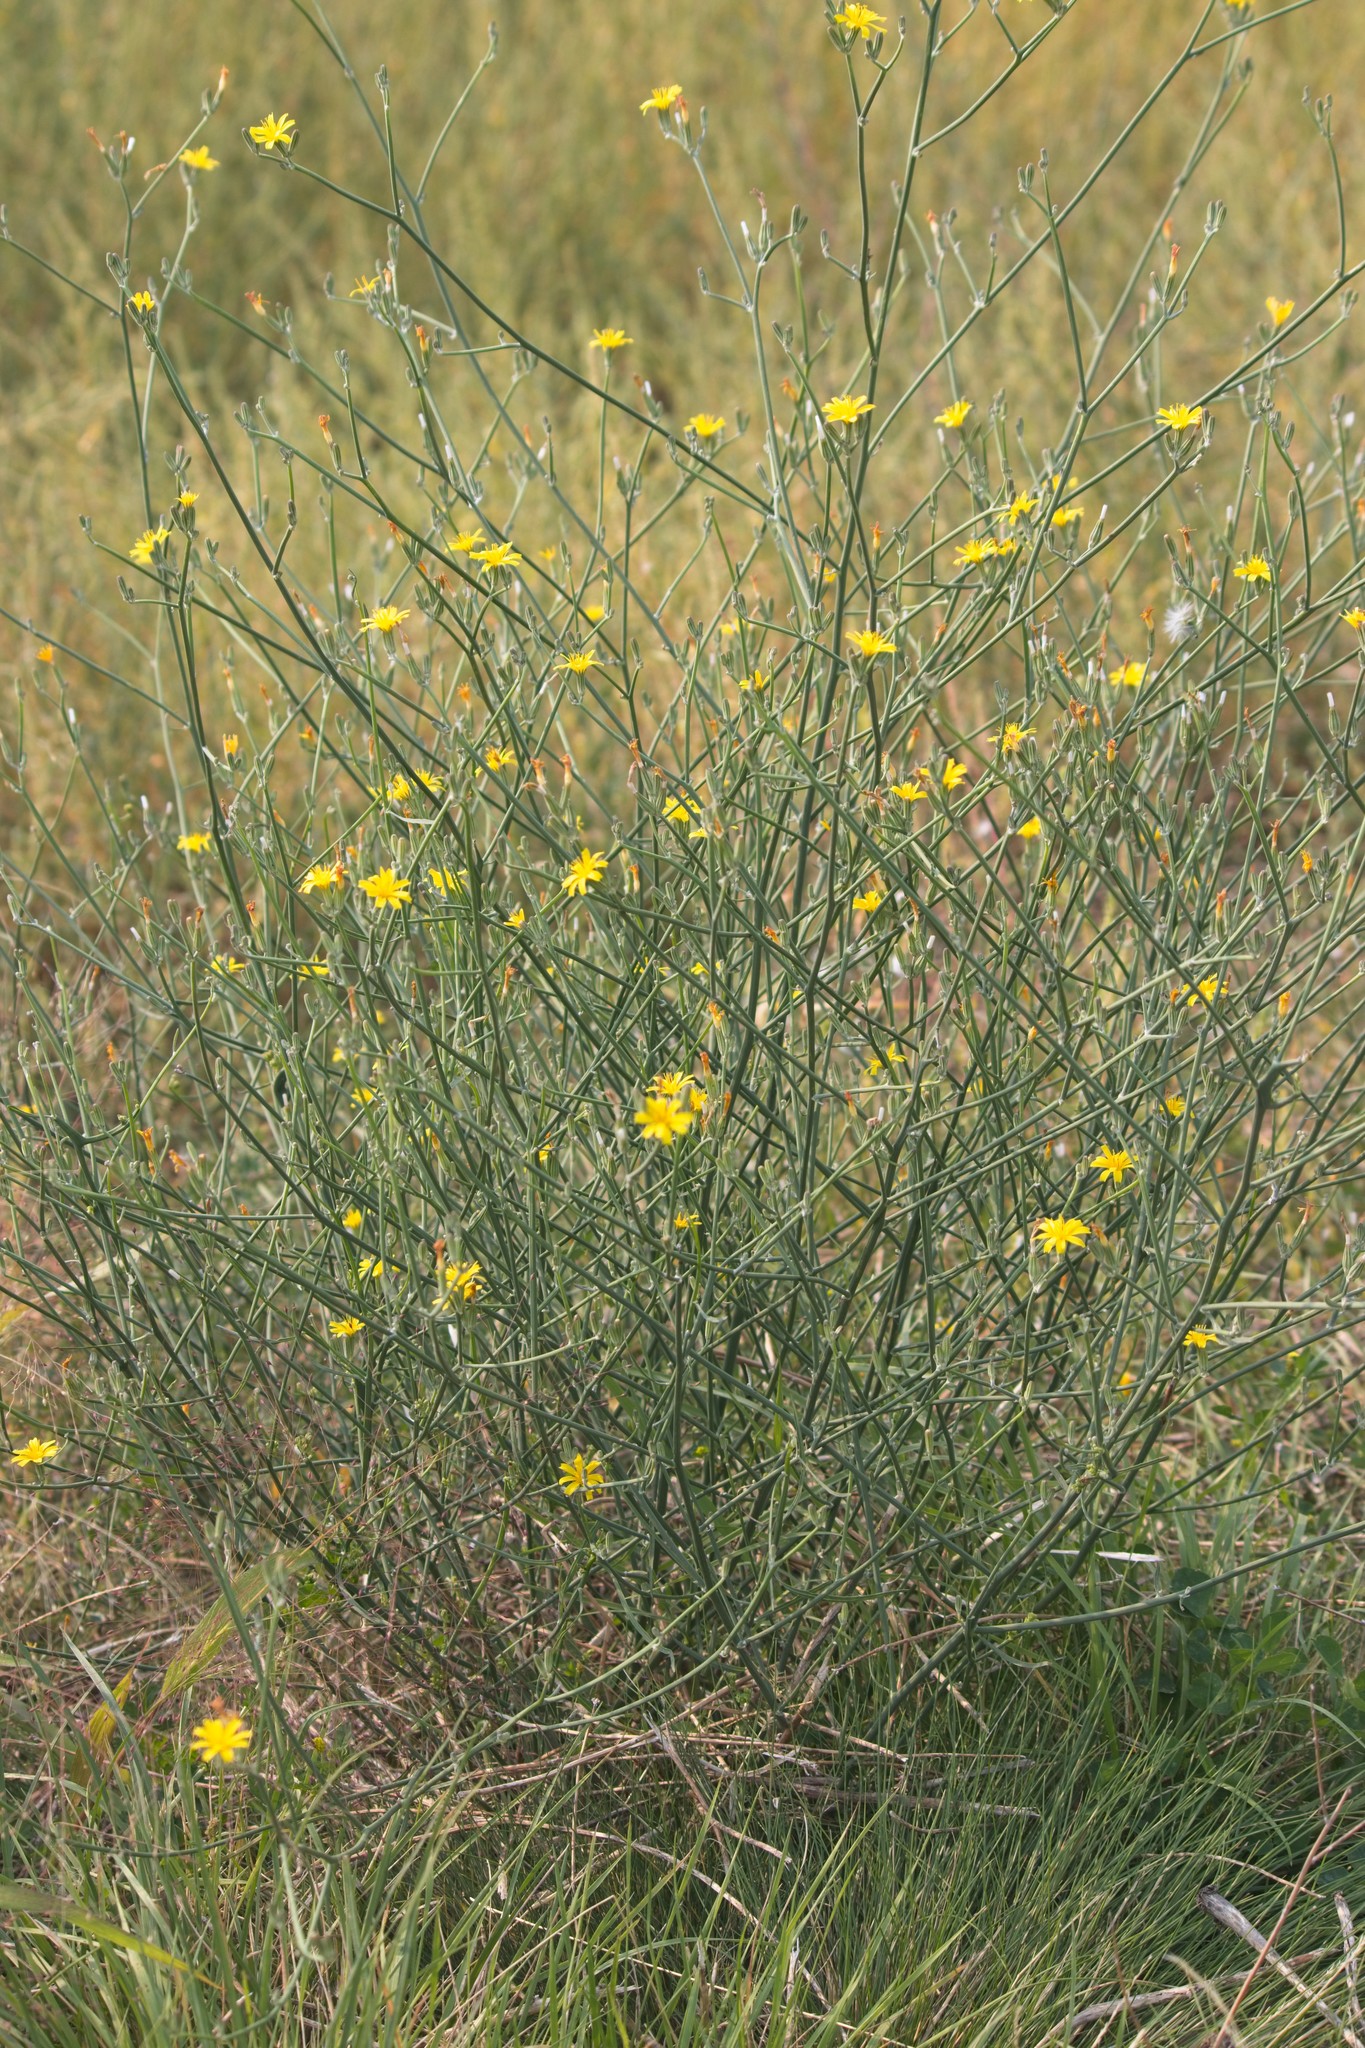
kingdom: Plantae
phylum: Tracheophyta
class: Magnoliopsida
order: Asterales
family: Asteraceae
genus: Chondrilla
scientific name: Chondrilla juncea
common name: Skeleton weed
